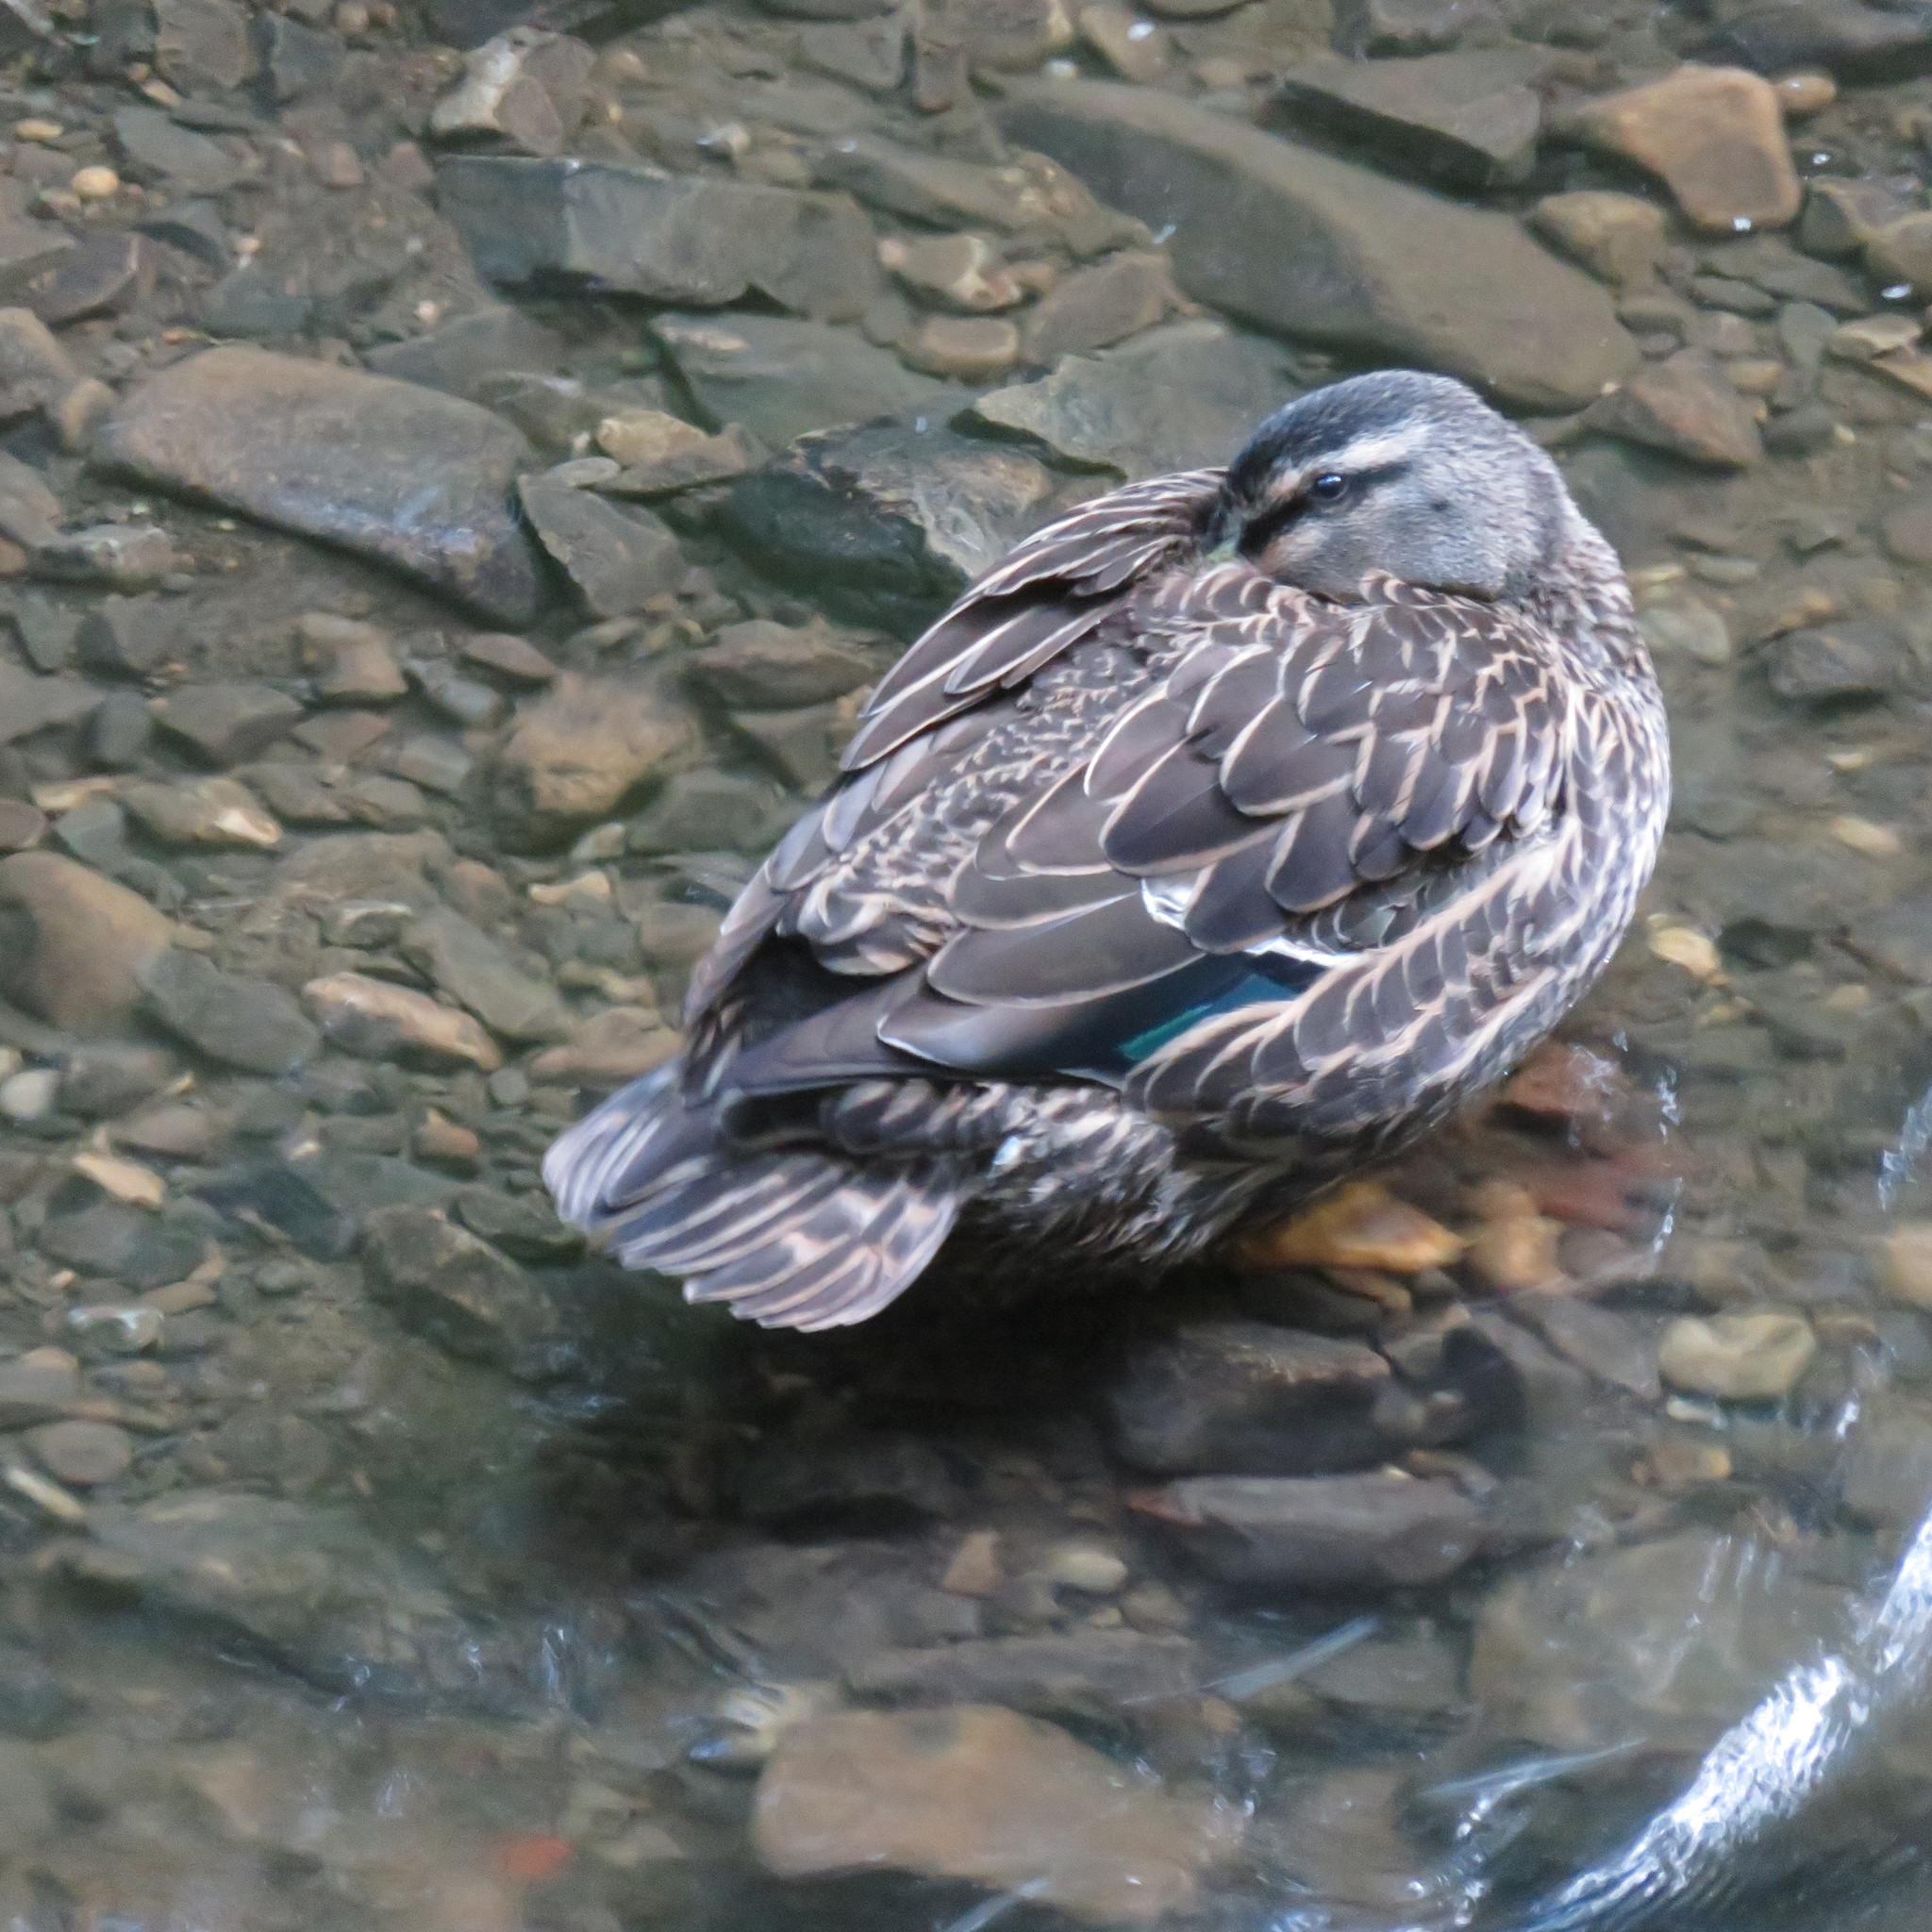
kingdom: Animalia
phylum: Chordata
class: Aves
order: Anseriformes
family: Anatidae
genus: Anas
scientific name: Anas
